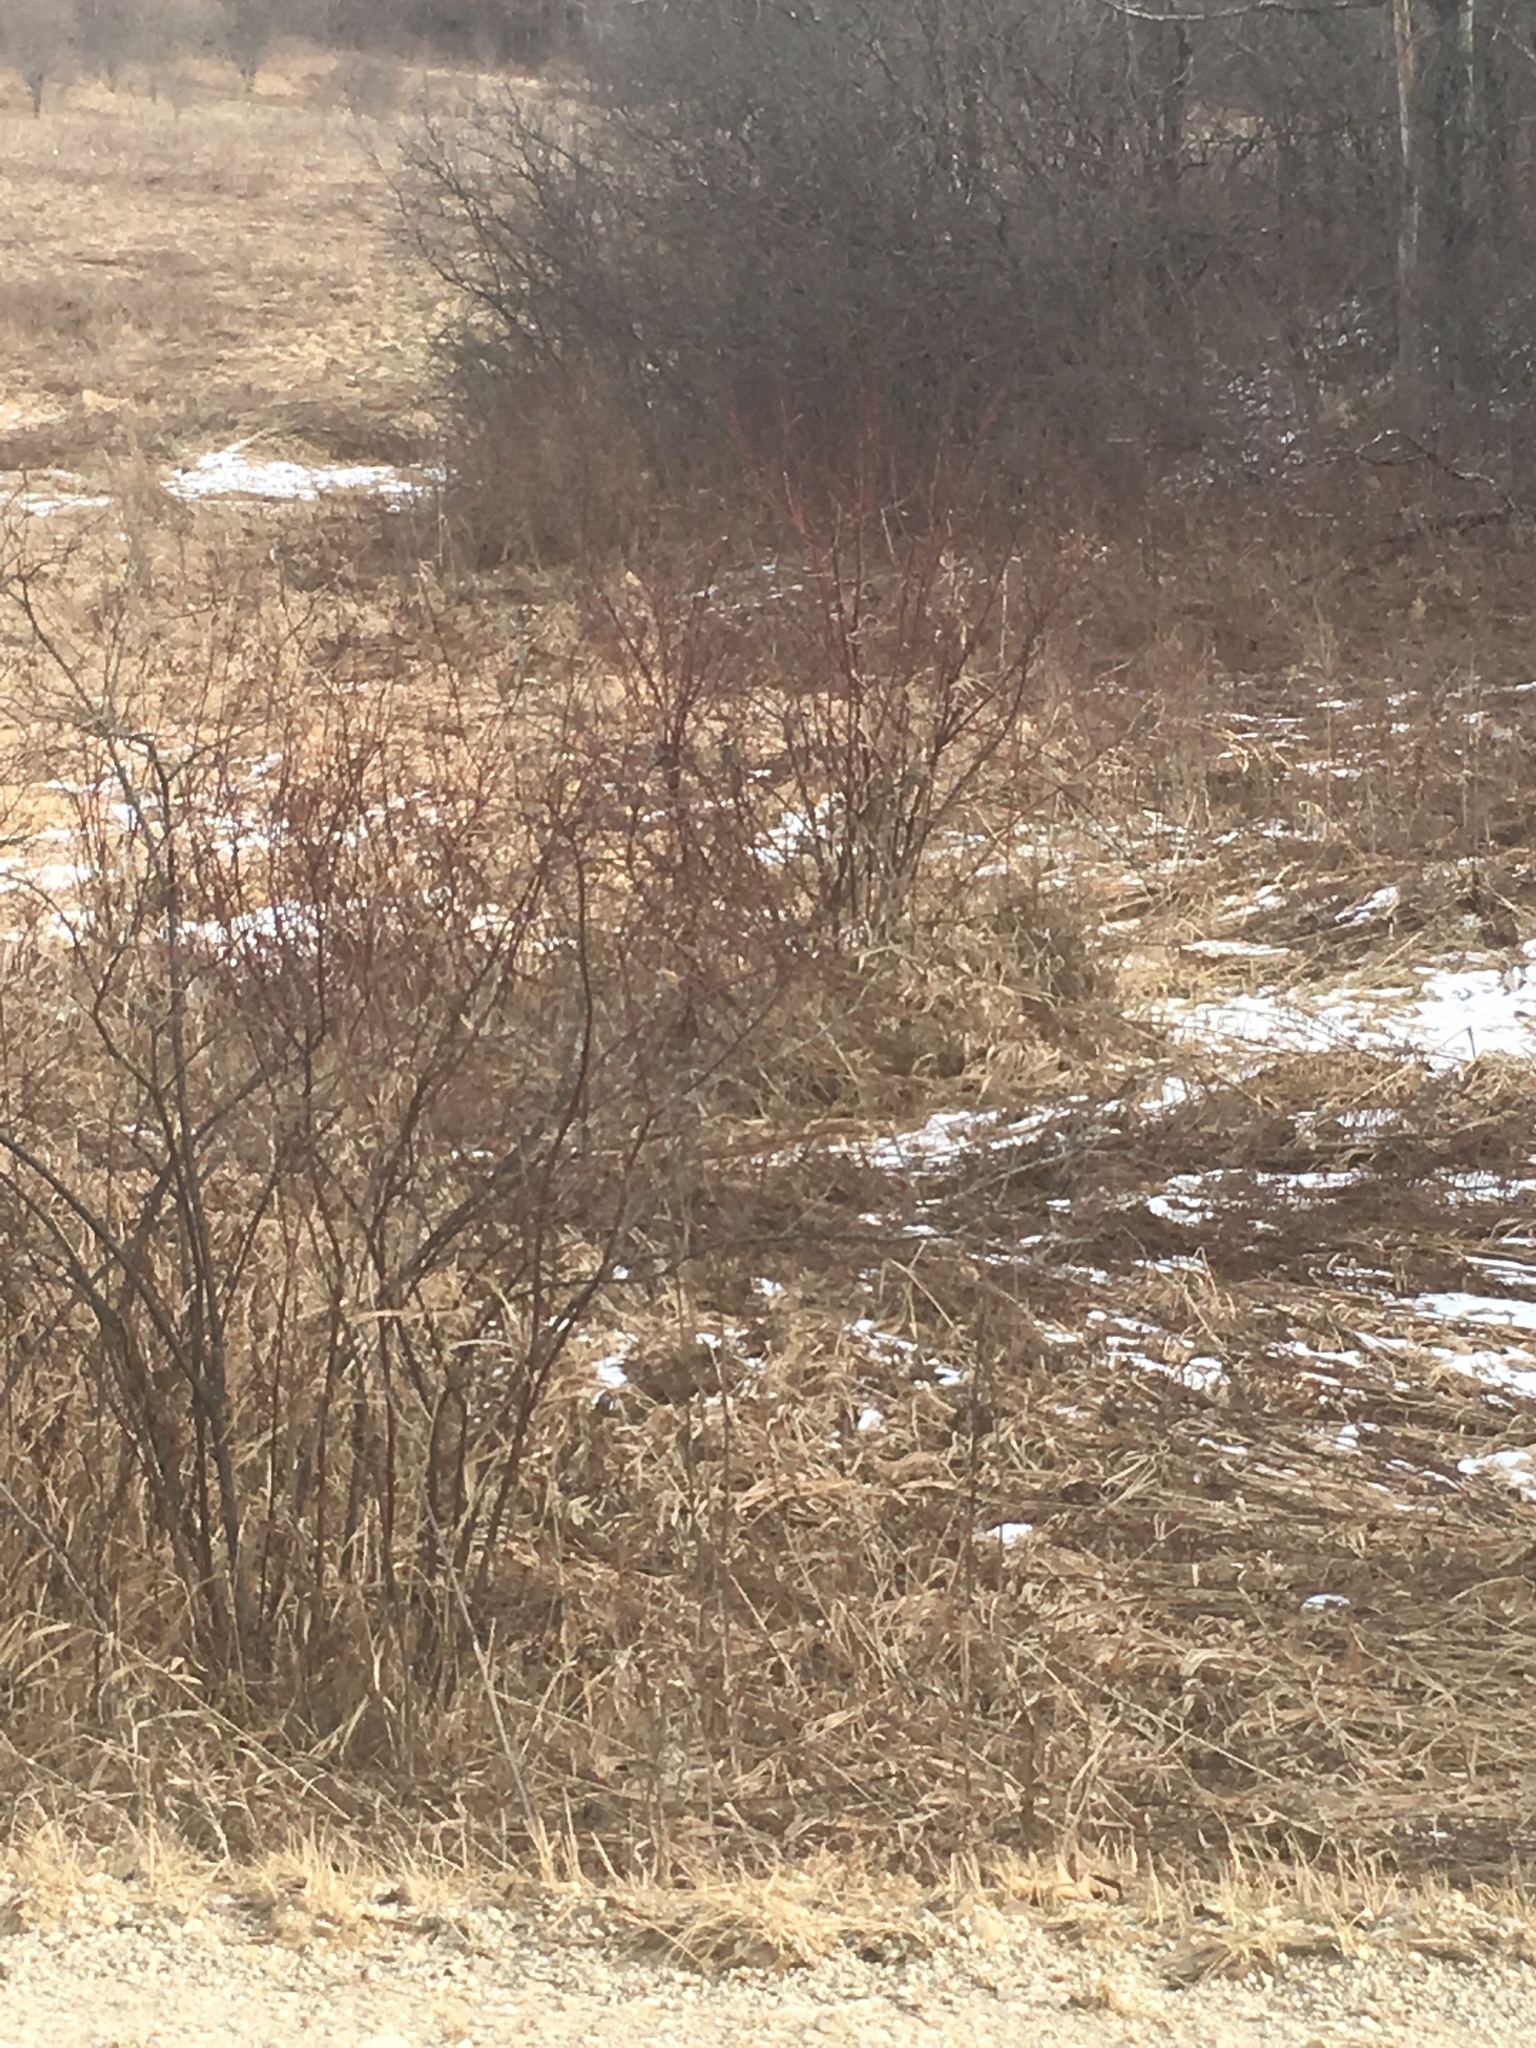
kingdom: Plantae
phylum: Tracheophyta
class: Magnoliopsida
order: Cornales
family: Cornaceae
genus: Cornus
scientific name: Cornus sericea
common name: Red-osier dogwood
